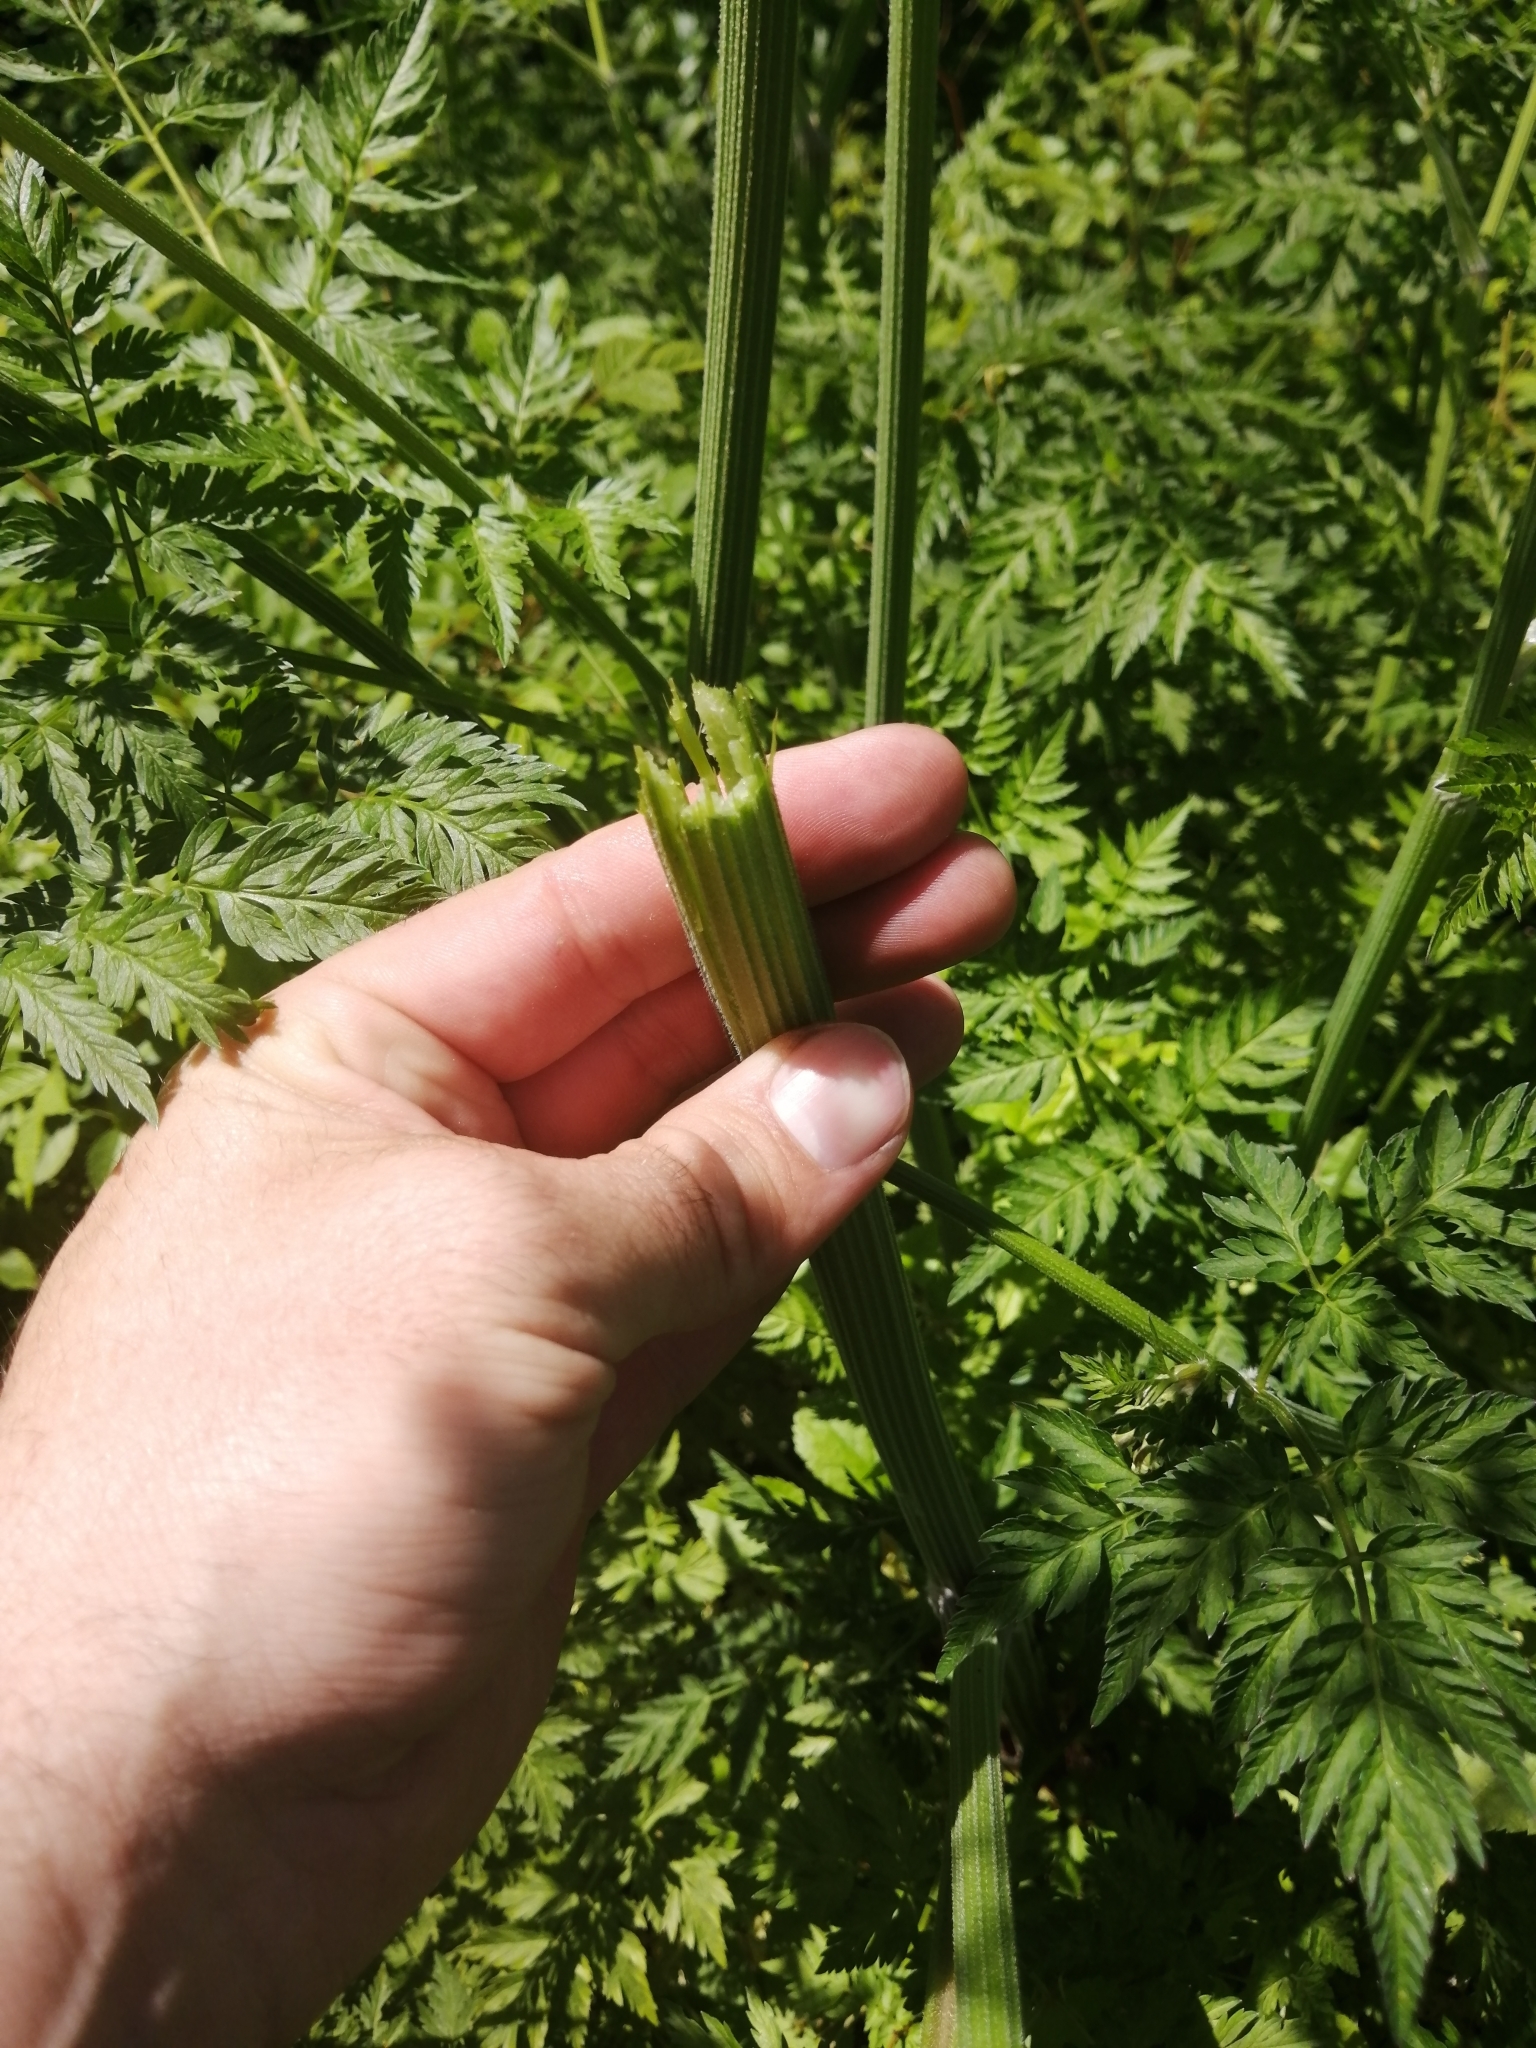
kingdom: Plantae
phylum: Tracheophyta
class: Magnoliopsida
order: Apiales
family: Apiaceae
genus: Anthriscus
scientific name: Anthriscus sylvestris
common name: Cow parsley
